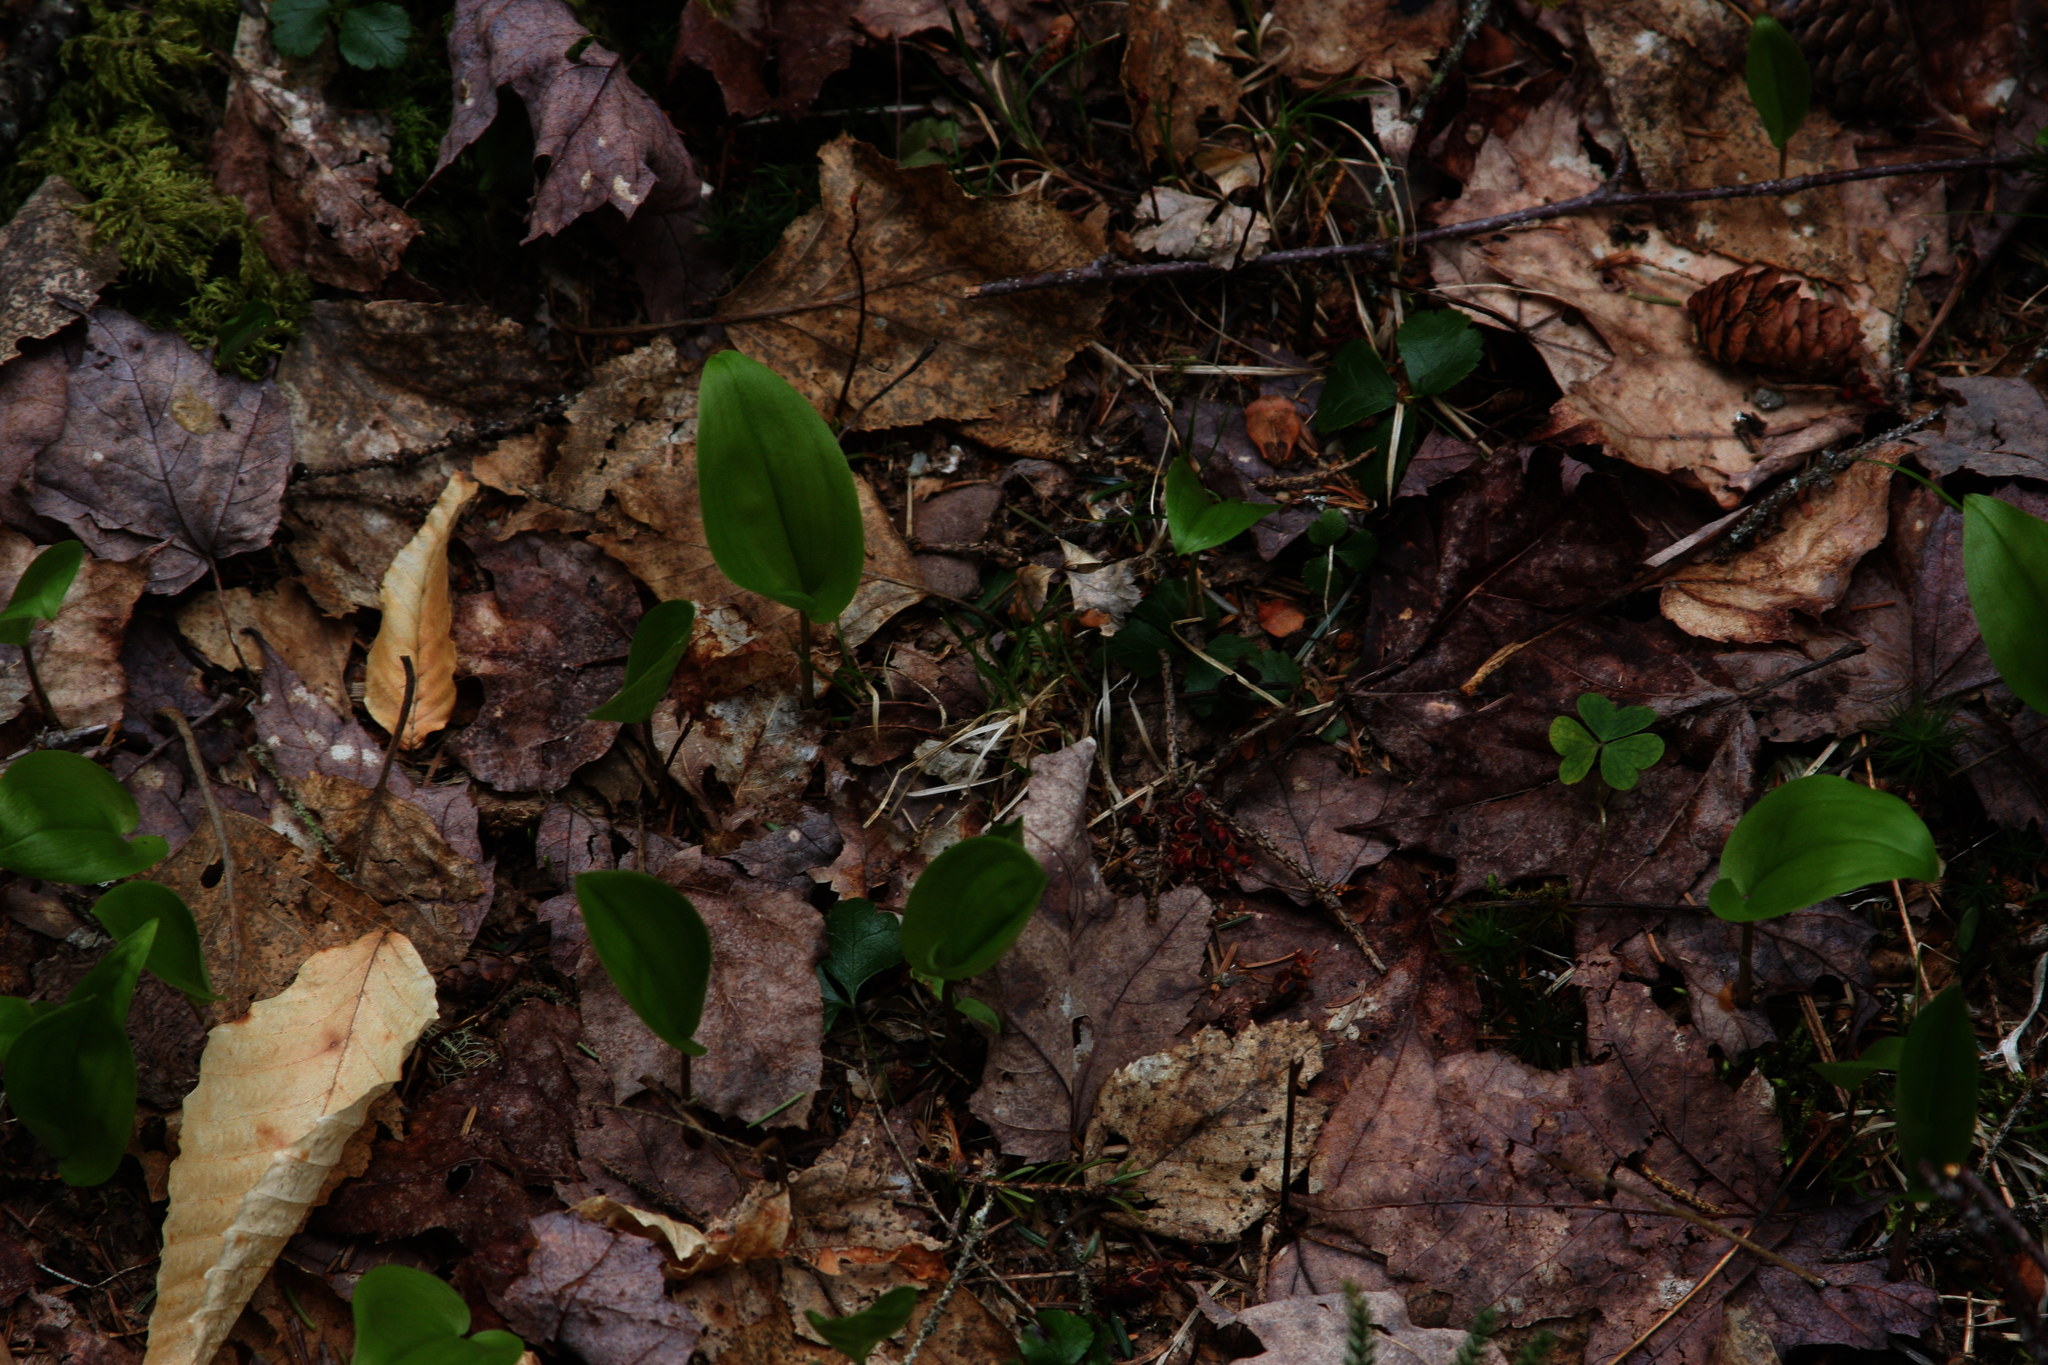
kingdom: Plantae
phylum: Tracheophyta
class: Liliopsida
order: Asparagales
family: Asparagaceae
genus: Maianthemum
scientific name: Maianthemum canadense
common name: False lily-of-the-valley
